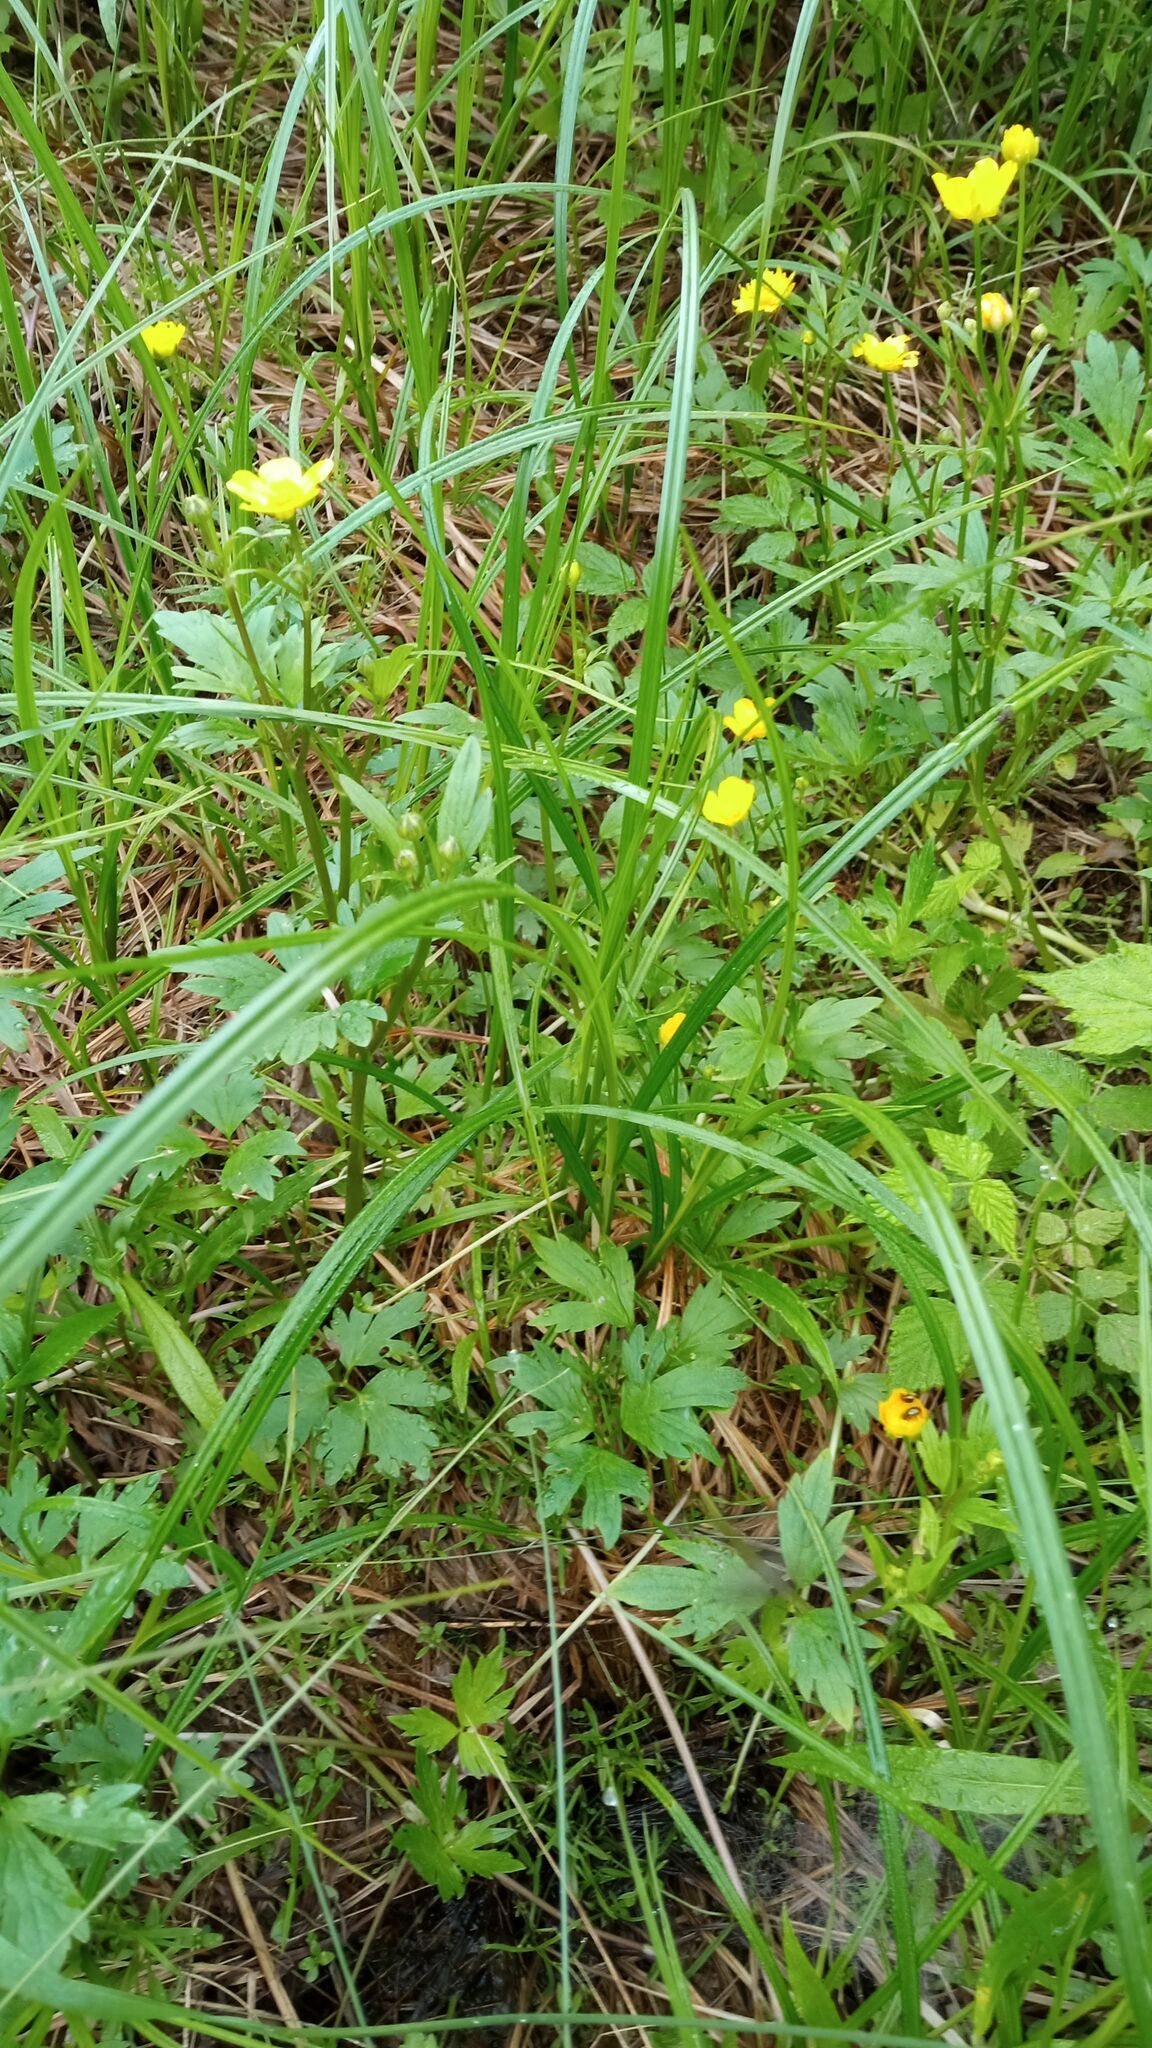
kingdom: Plantae
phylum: Tracheophyta
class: Magnoliopsida
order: Ranunculales
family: Ranunculaceae
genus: Ranunculus
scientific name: Ranunculus repens
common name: Creeping buttercup
